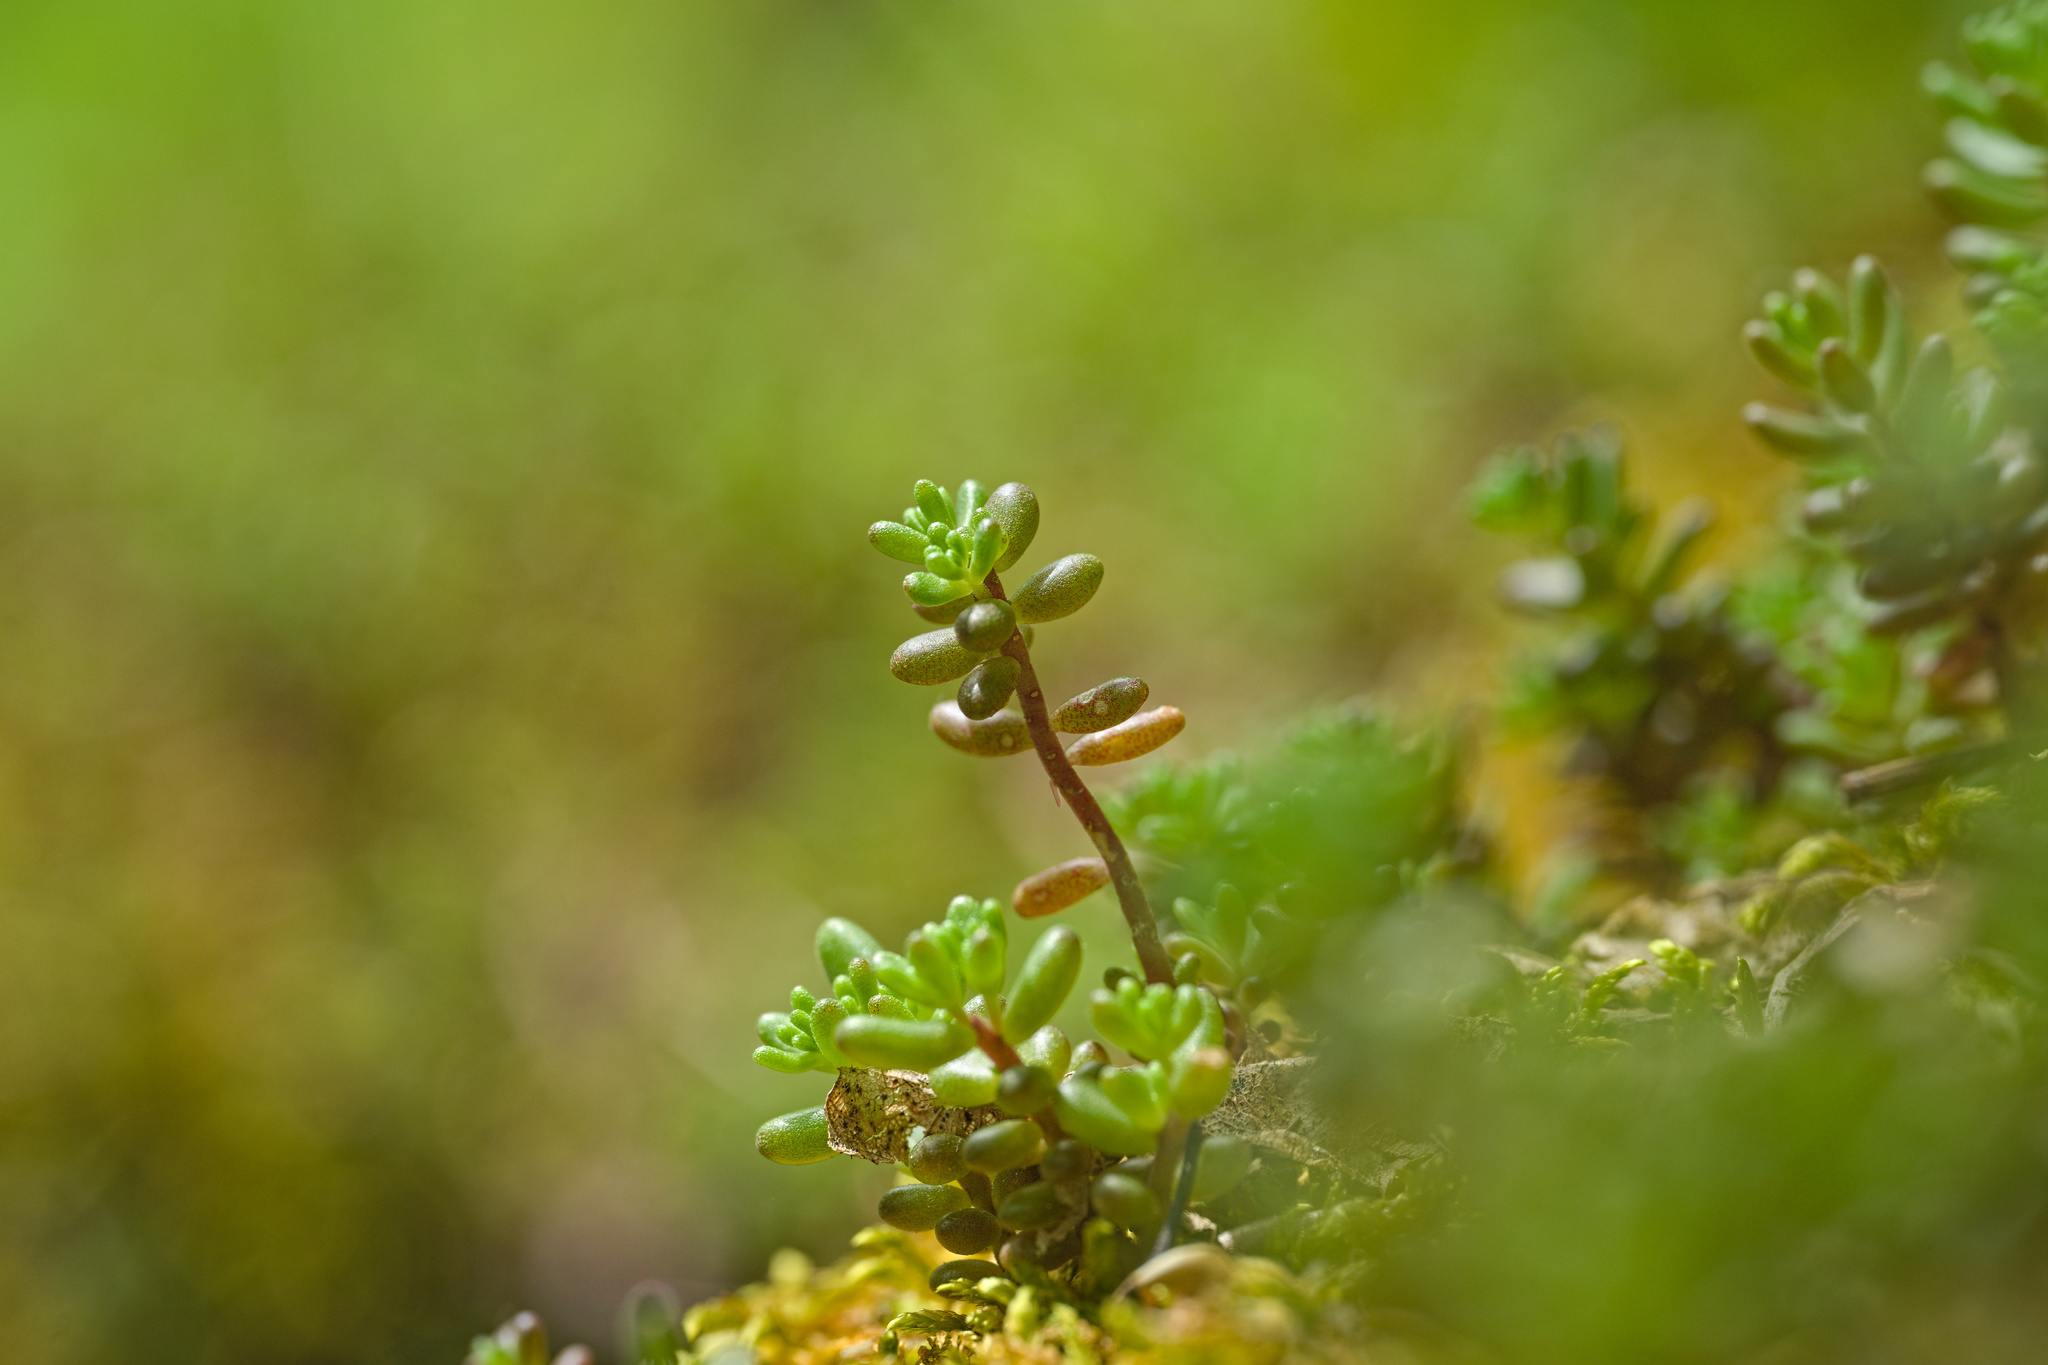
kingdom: Plantae
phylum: Tracheophyta
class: Magnoliopsida
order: Saxifragales
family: Crassulaceae
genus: Sedum
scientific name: Sedum album
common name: White stonecrop
